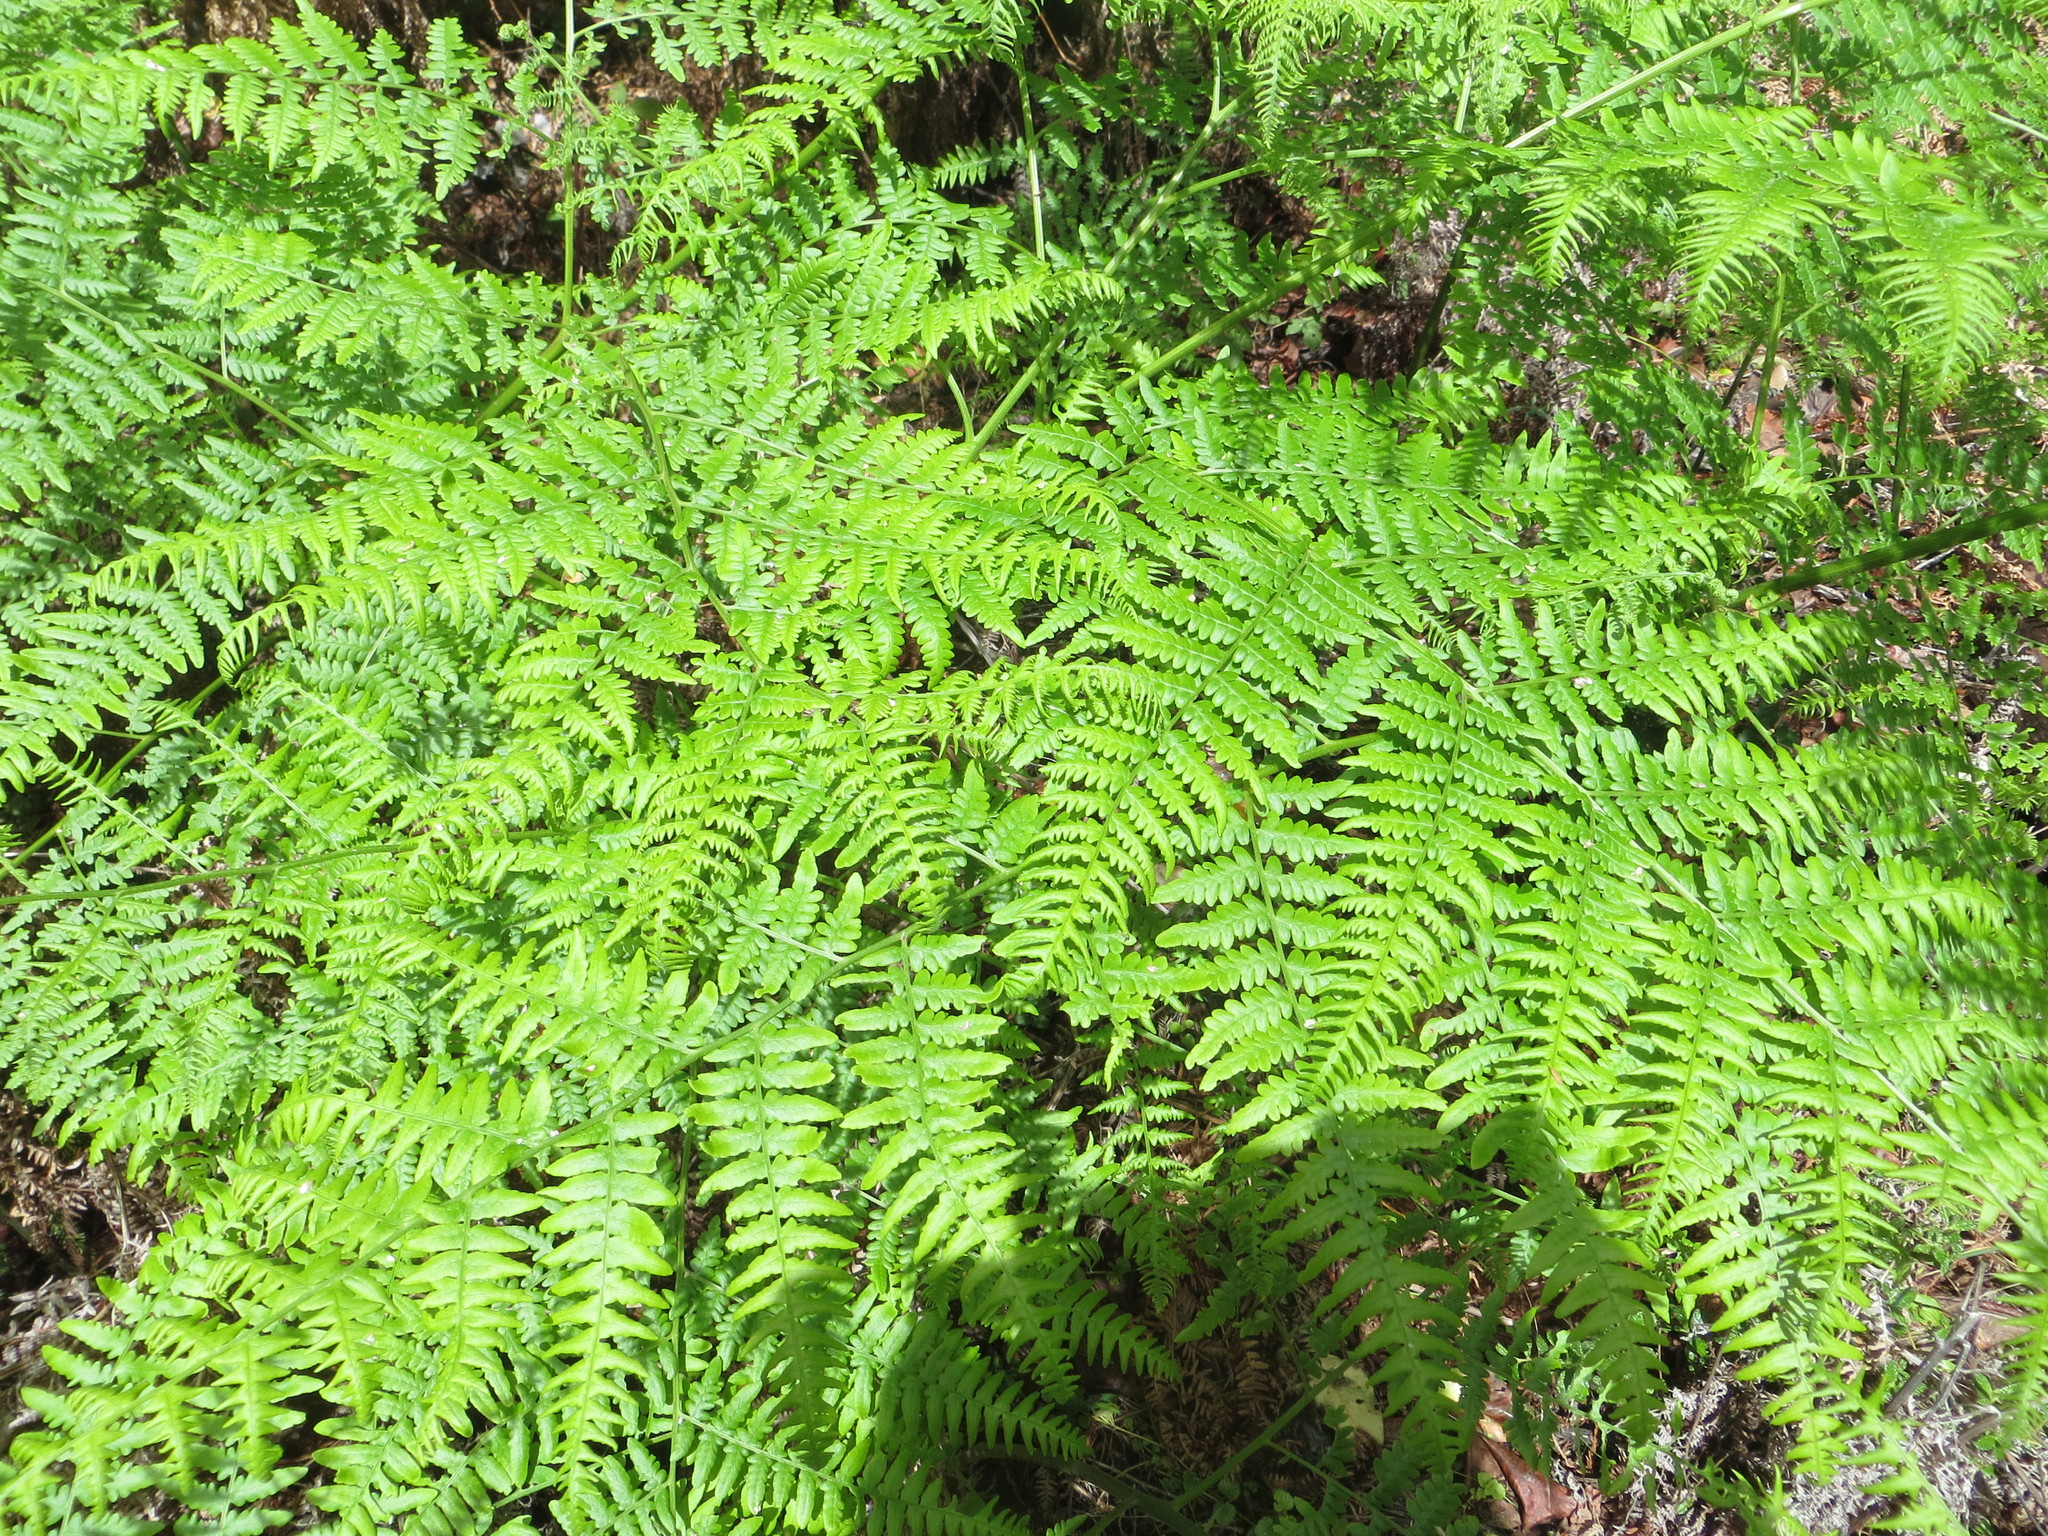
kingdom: Plantae
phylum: Tracheophyta
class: Polypodiopsida
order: Polypodiales
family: Dennstaedtiaceae
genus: Pteridium
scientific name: Pteridium aquilinum
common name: Bracken
